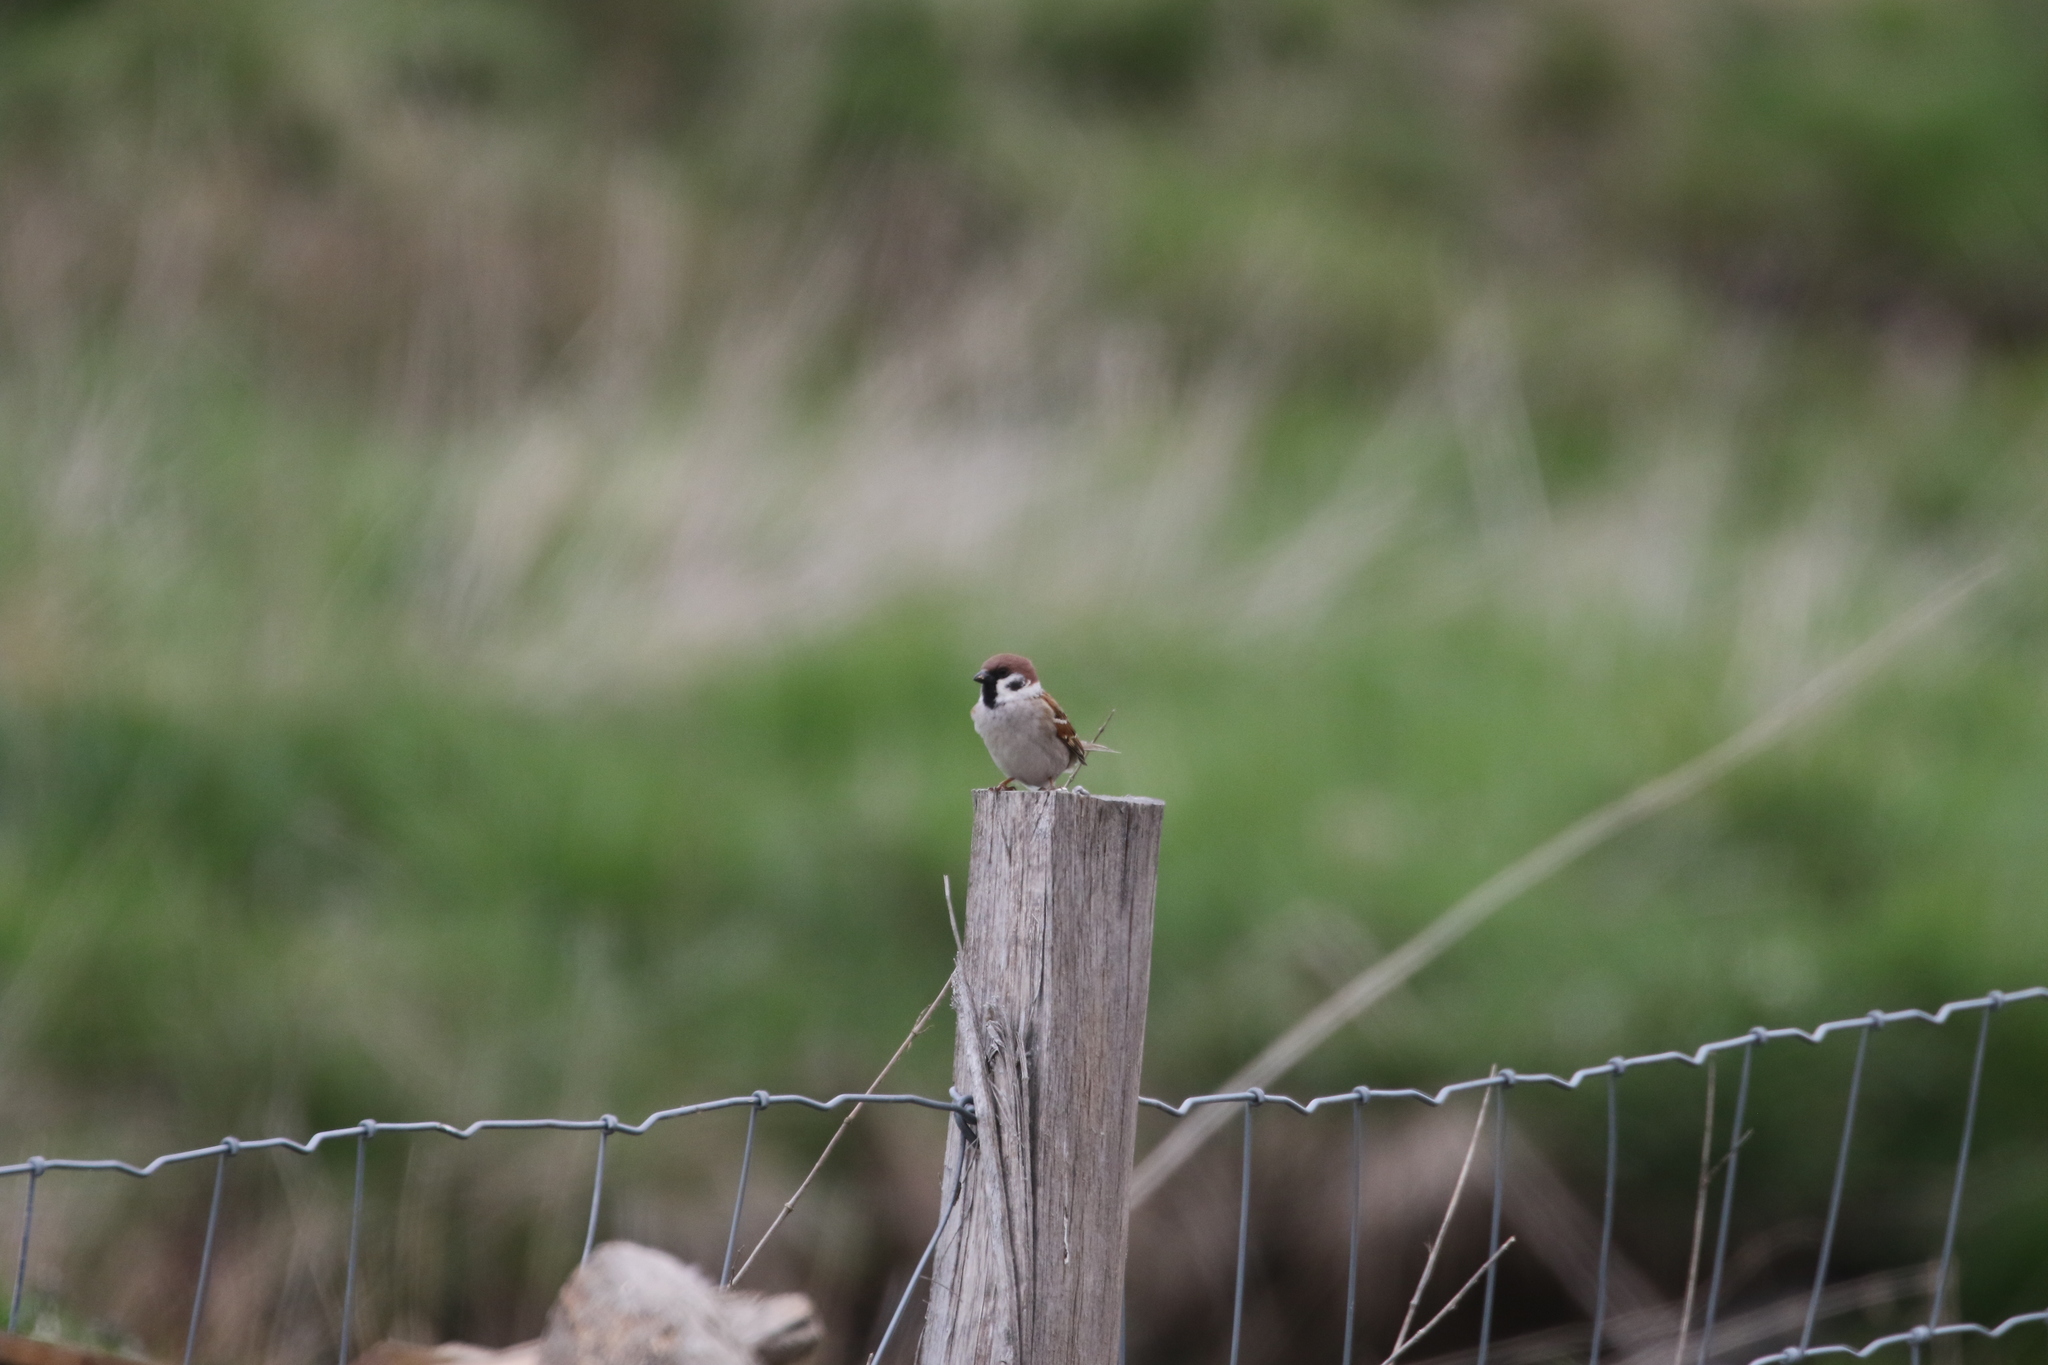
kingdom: Animalia
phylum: Chordata
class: Aves
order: Passeriformes
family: Passeridae
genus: Passer
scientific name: Passer montanus
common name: Eurasian tree sparrow
